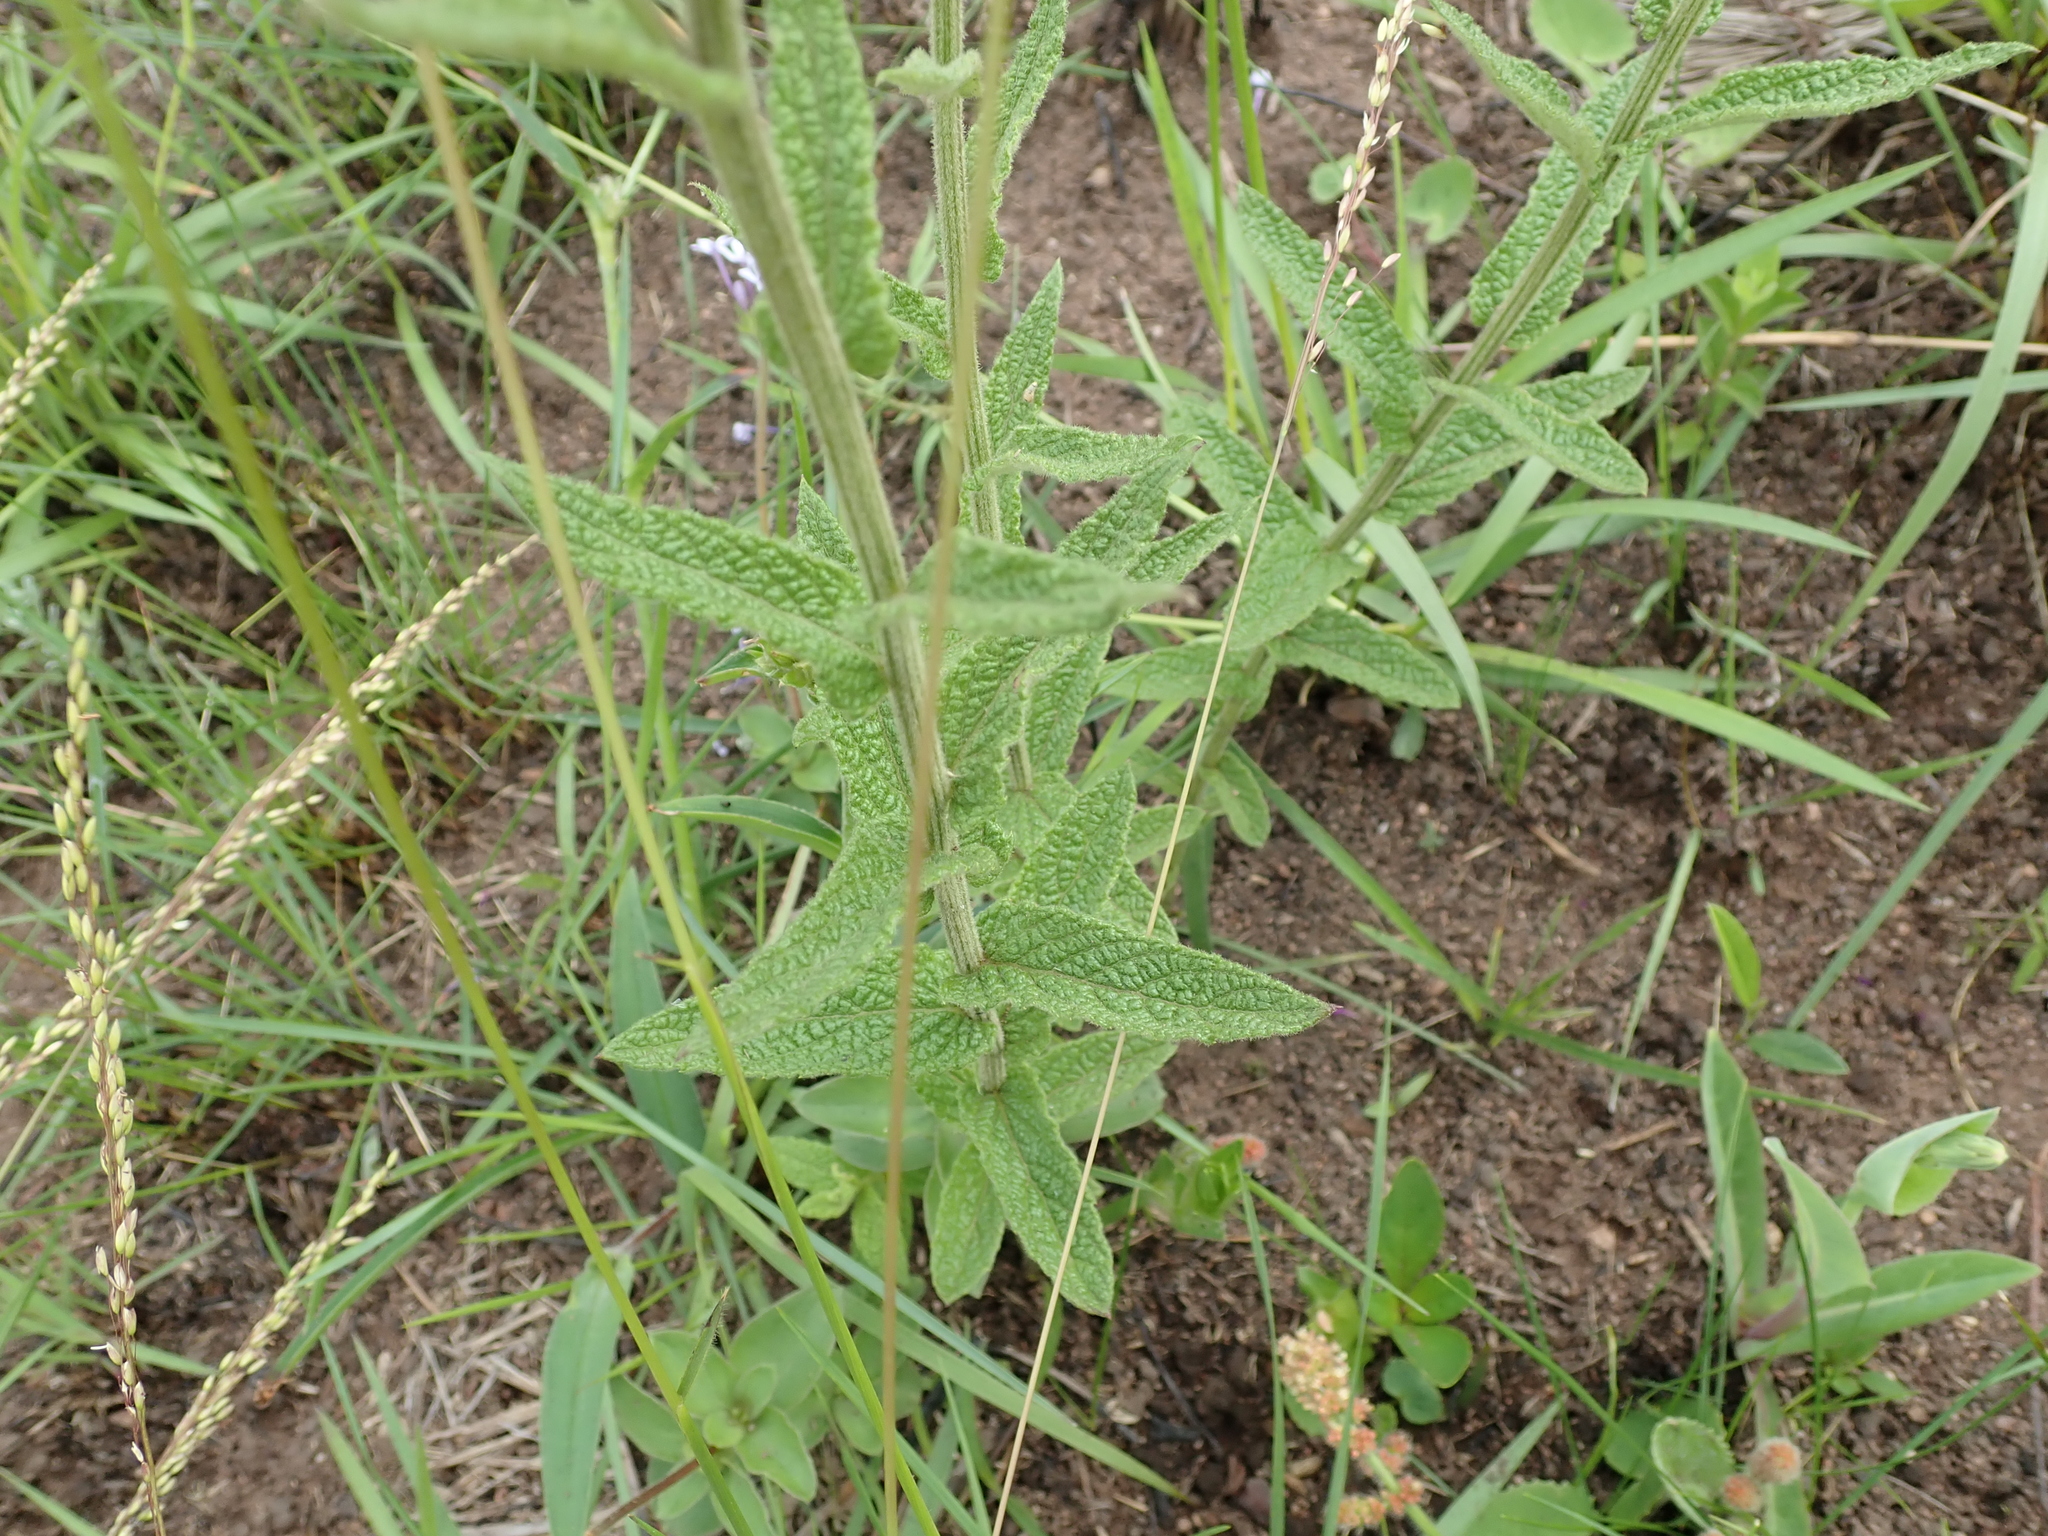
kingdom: Plantae
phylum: Tracheophyta
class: Magnoliopsida
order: Asterales
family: Asteraceae
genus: Hilliardiella
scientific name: Hilliardiella hirsuta
